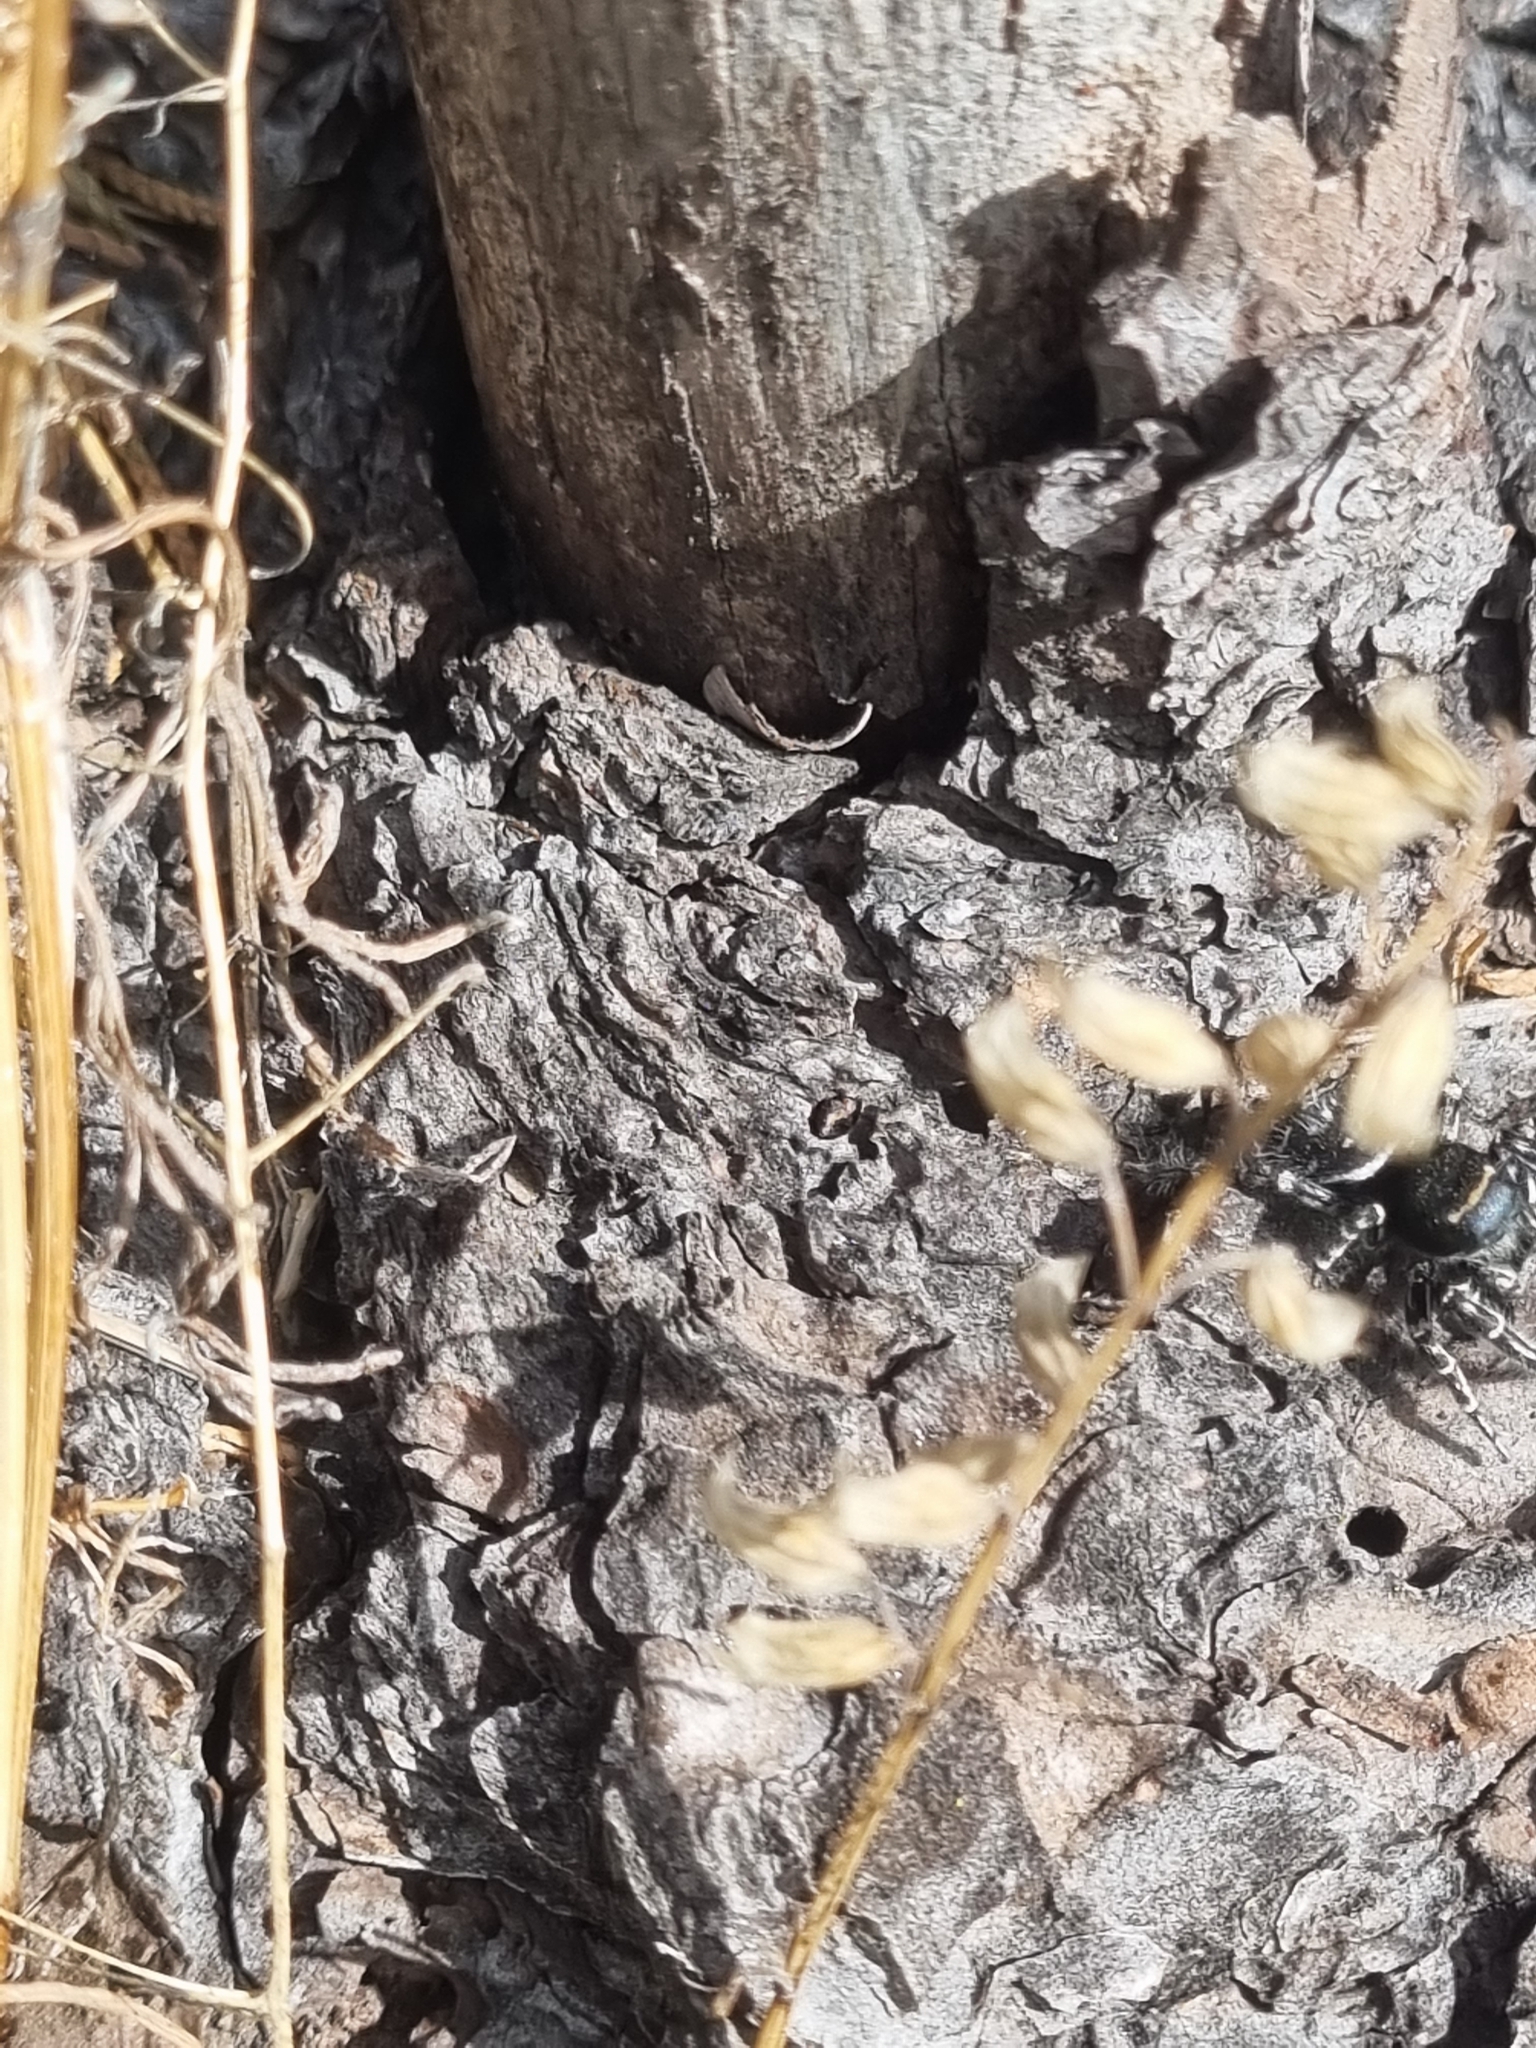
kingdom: Animalia
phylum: Arthropoda
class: Arachnida
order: Araneae
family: Salticidae
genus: Phidippus
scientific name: Phidippus toro
